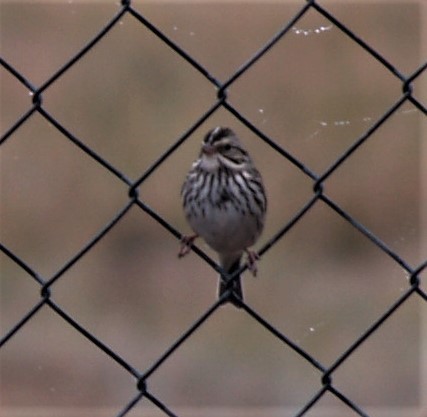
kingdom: Animalia
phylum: Chordata
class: Aves
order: Passeriformes
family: Passerellidae
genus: Passerculus
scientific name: Passerculus sandwichensis
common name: Savannah sparrow
